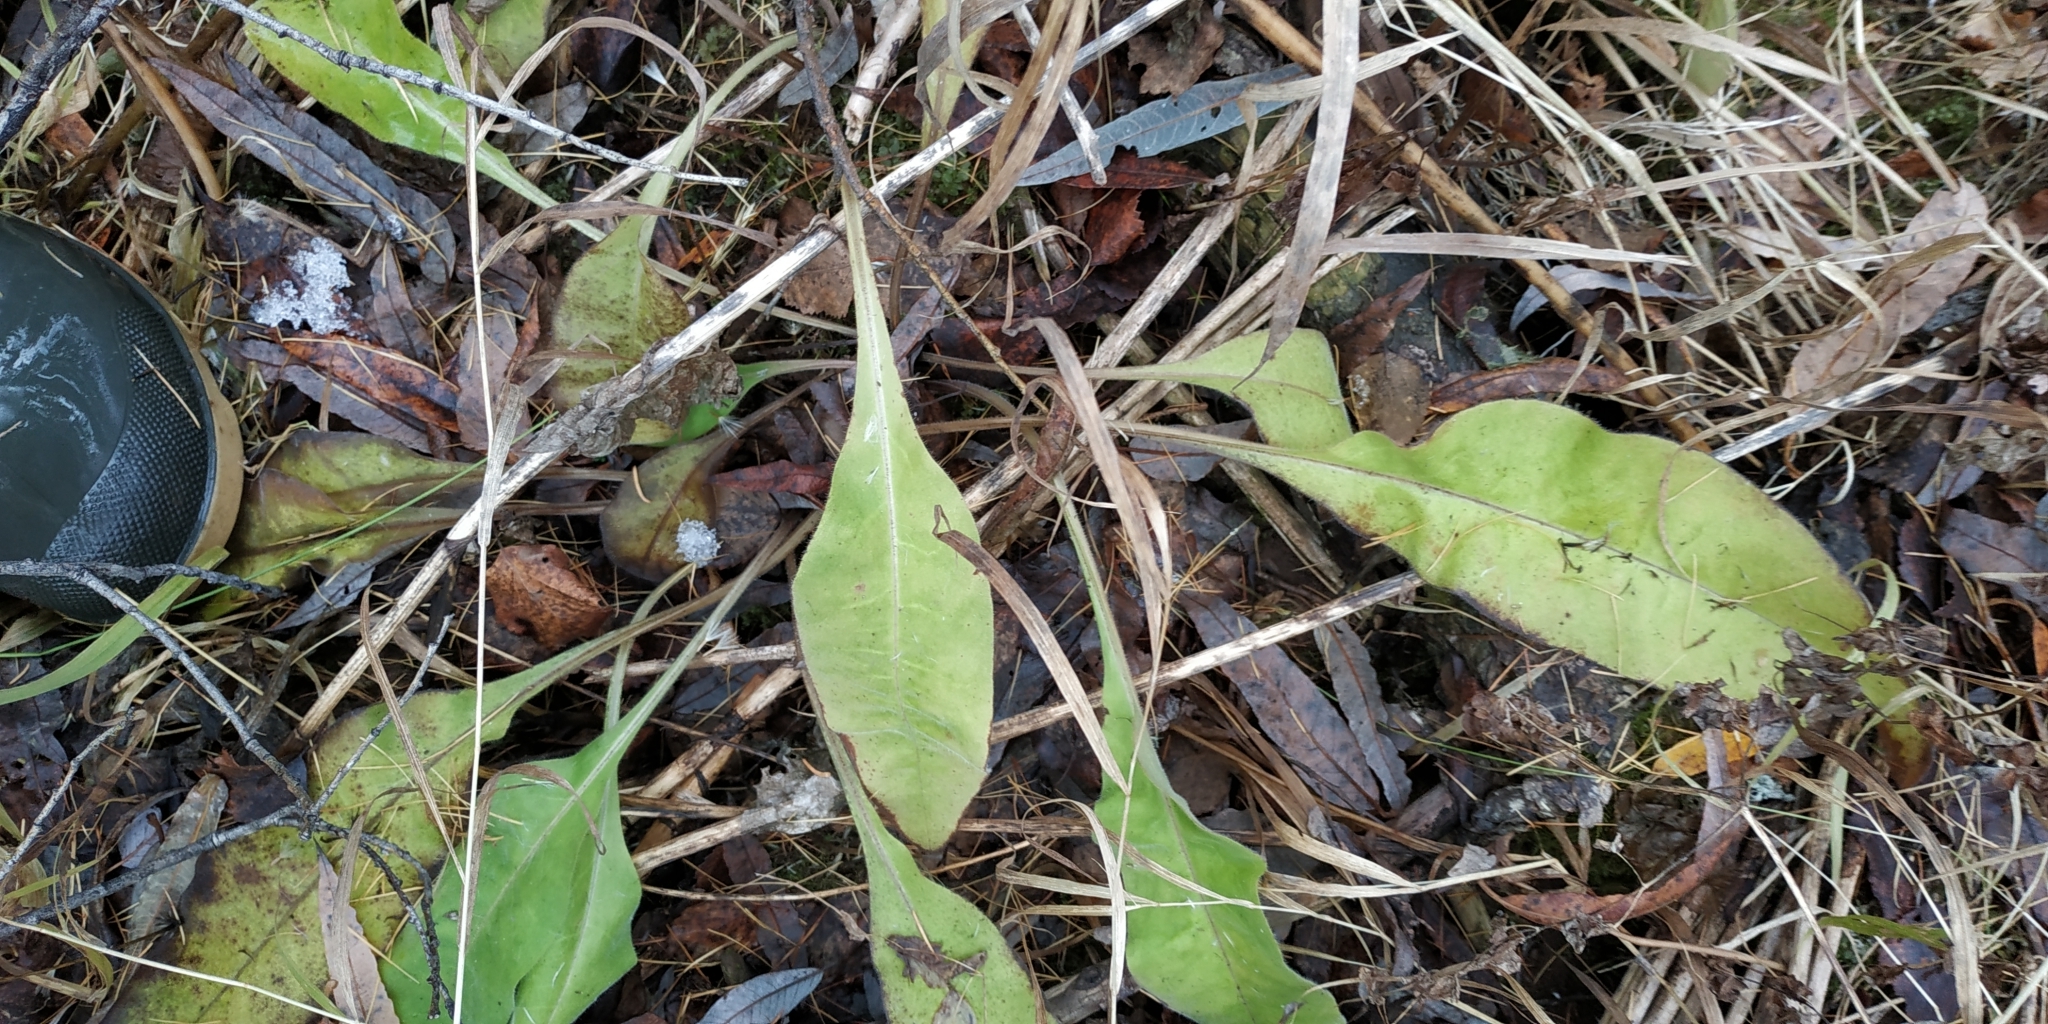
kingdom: Plantae
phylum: Tracheophyta
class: Magnoliopsida
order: Boraginales
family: Boraginaceae
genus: Pulmonaria
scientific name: Pulmonaria mollis
